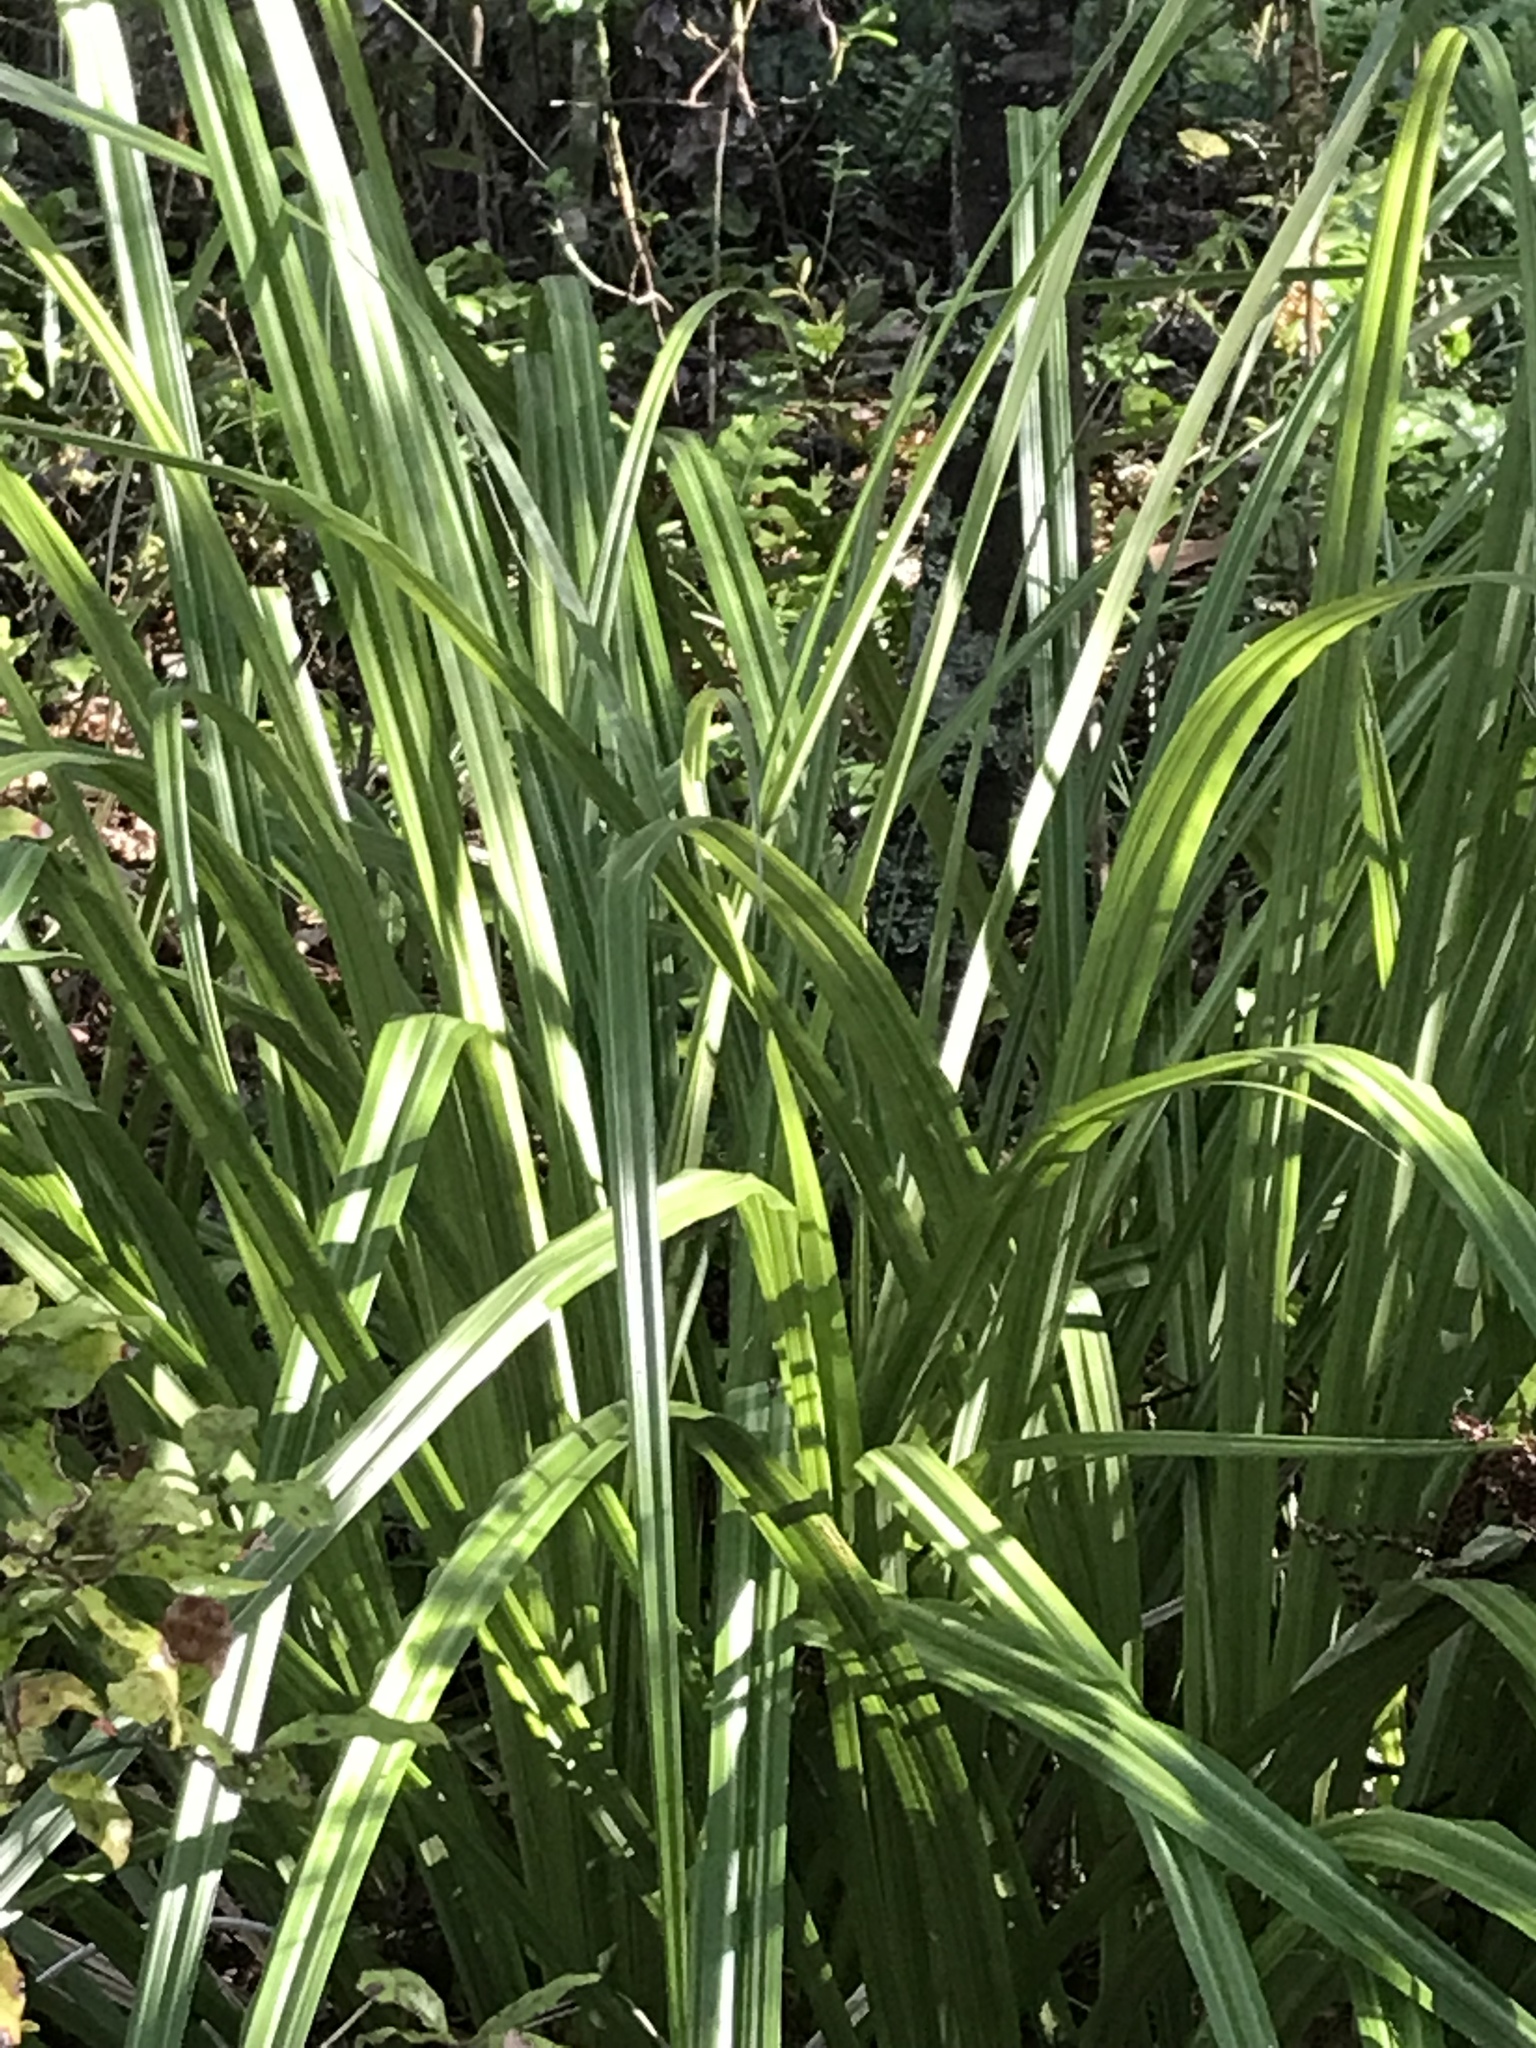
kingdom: Plantae
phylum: Tracheophyta
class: Liliopsida
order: Asparagales
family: Asteliaceae
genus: Astelia
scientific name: Astelia trinervia
